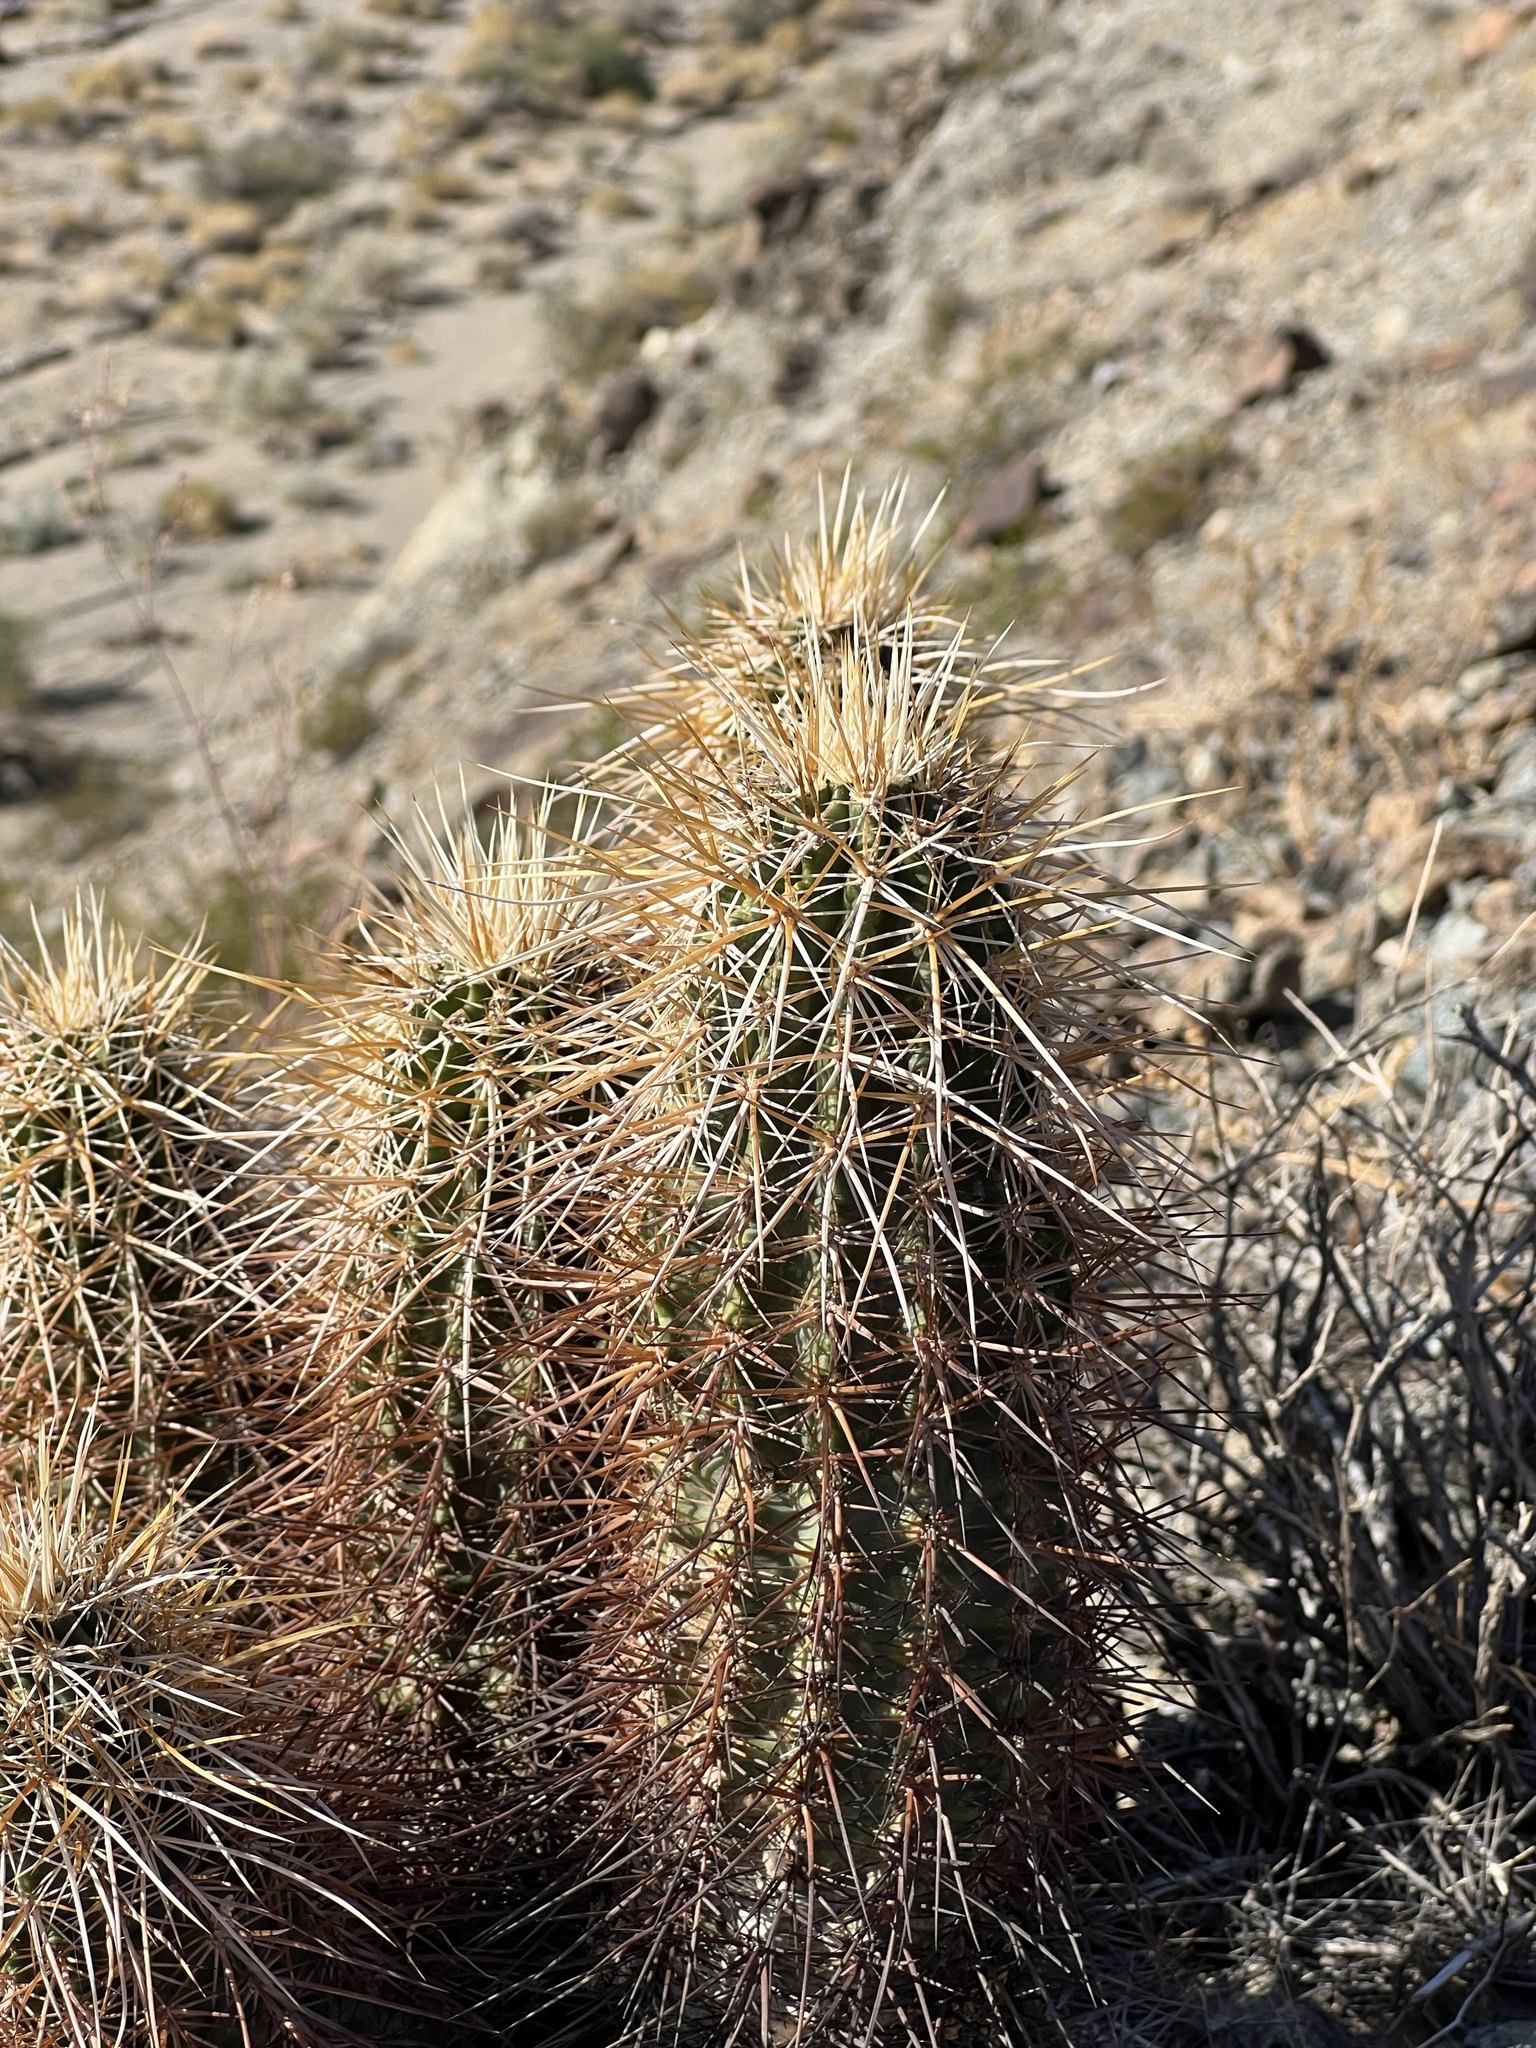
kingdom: Plantae
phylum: Tracheophyta
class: Magnoliopsida
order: Caryophyllales
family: Cactaceae
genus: Echinocereus
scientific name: Echinocereus engelmannii
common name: Engelmann's hedgehog cactus
